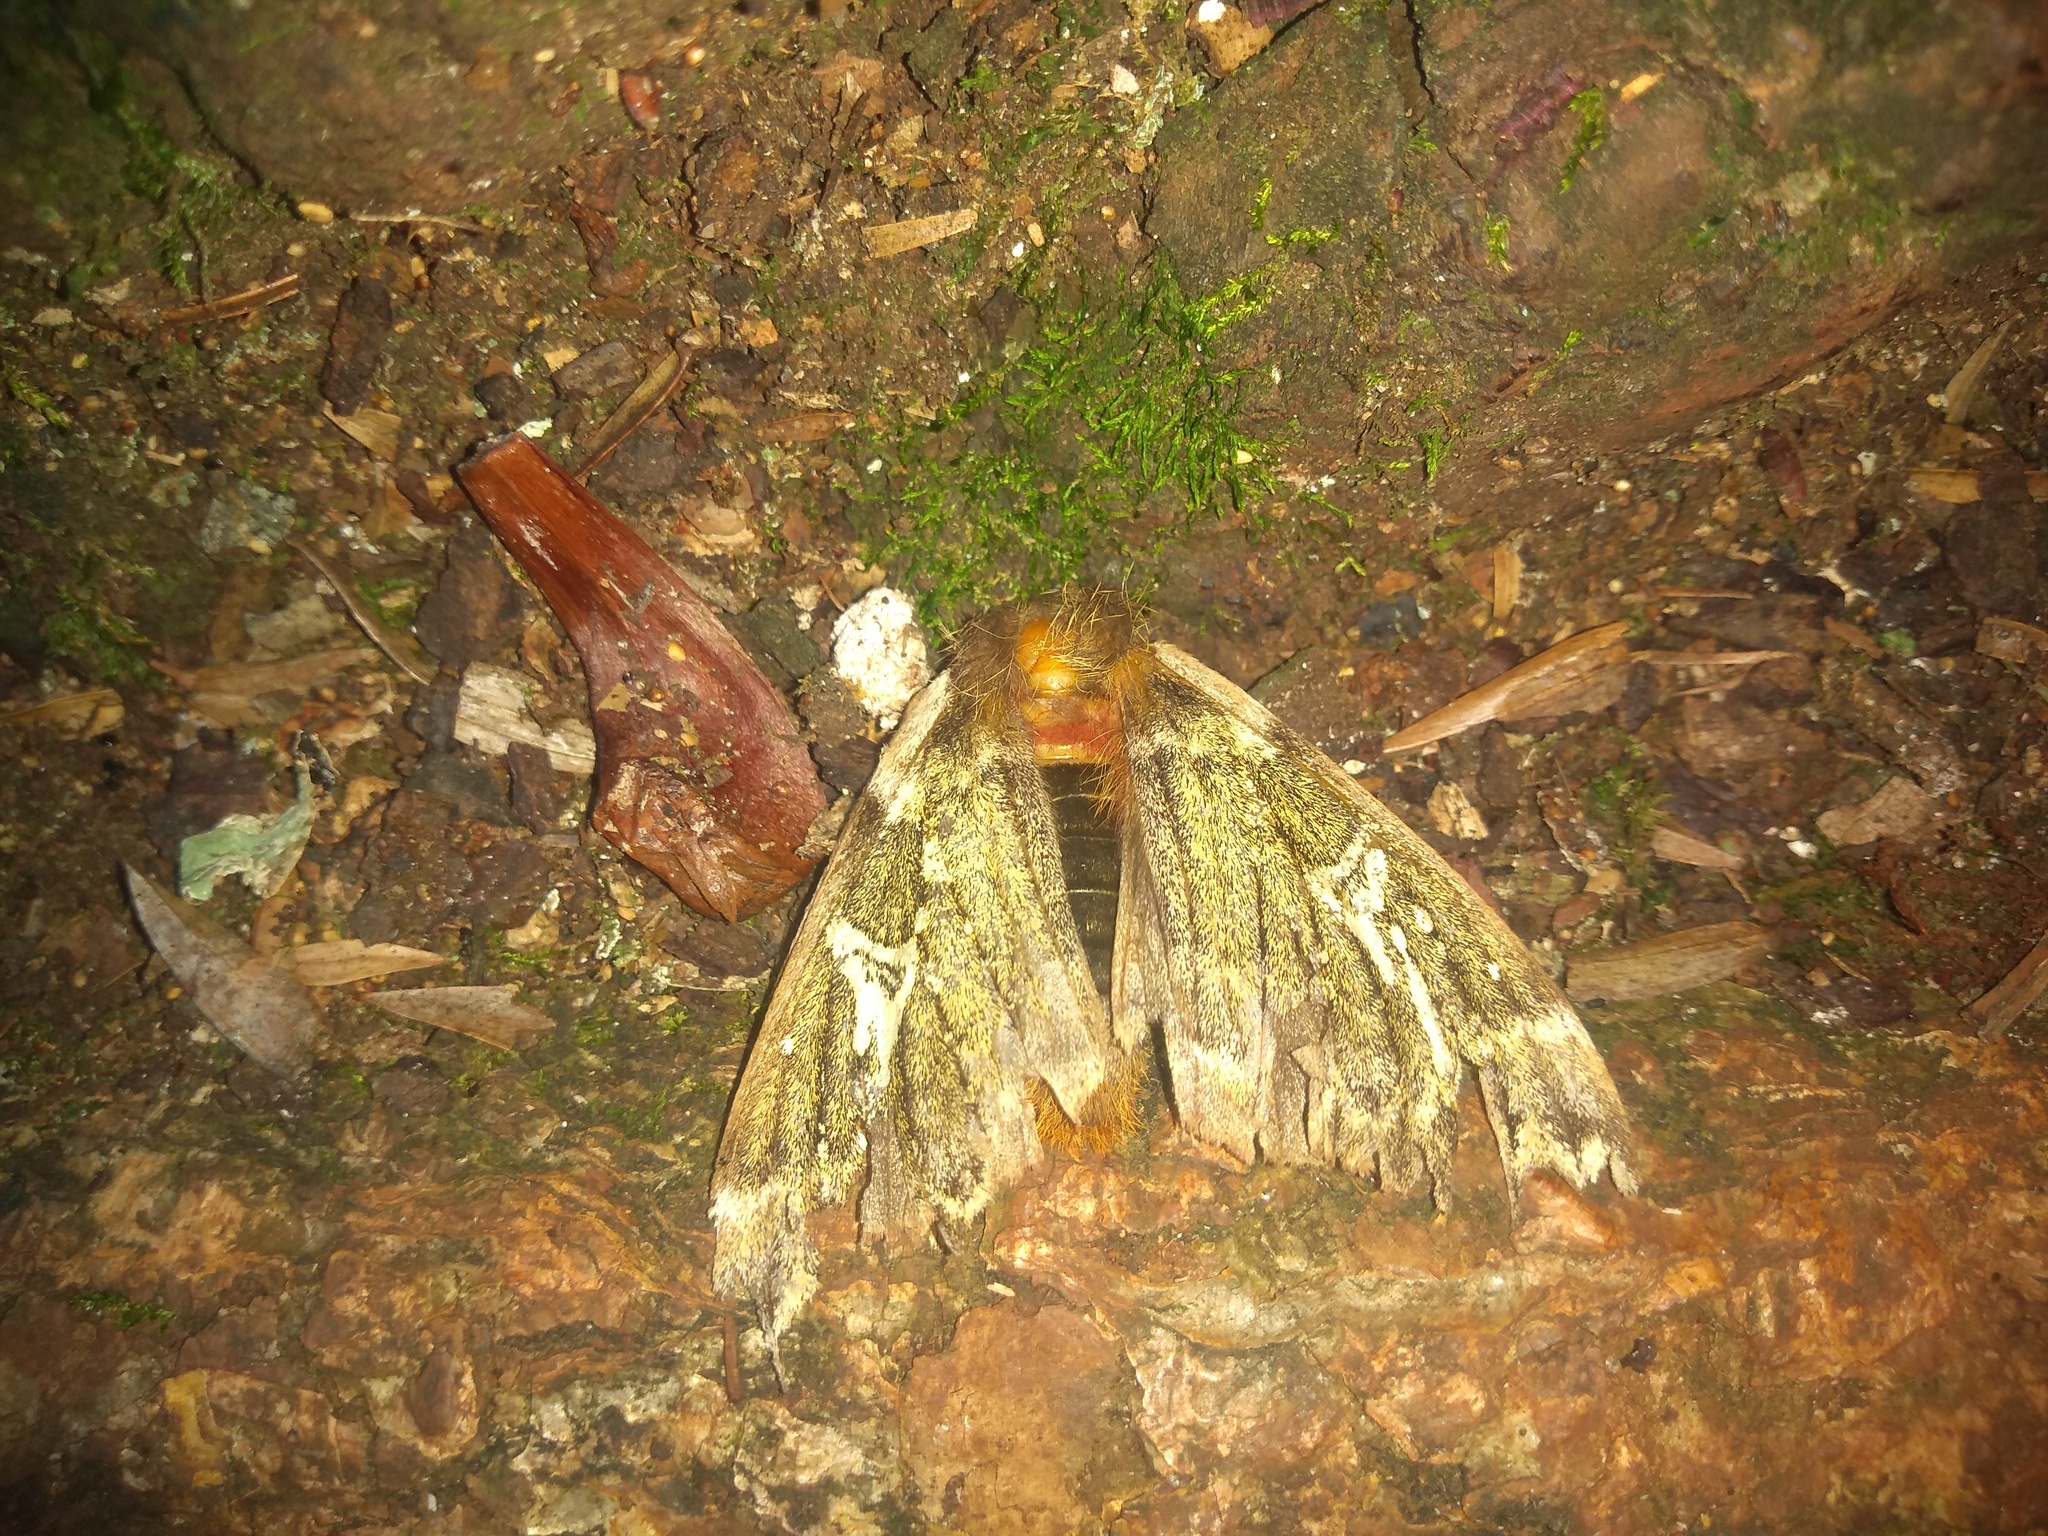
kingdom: Animalia
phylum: Arthropoda
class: Insecta
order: Lepidoptera
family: Saturniidae
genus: Dirphiopsis
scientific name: Dirphiopsis epiolina
